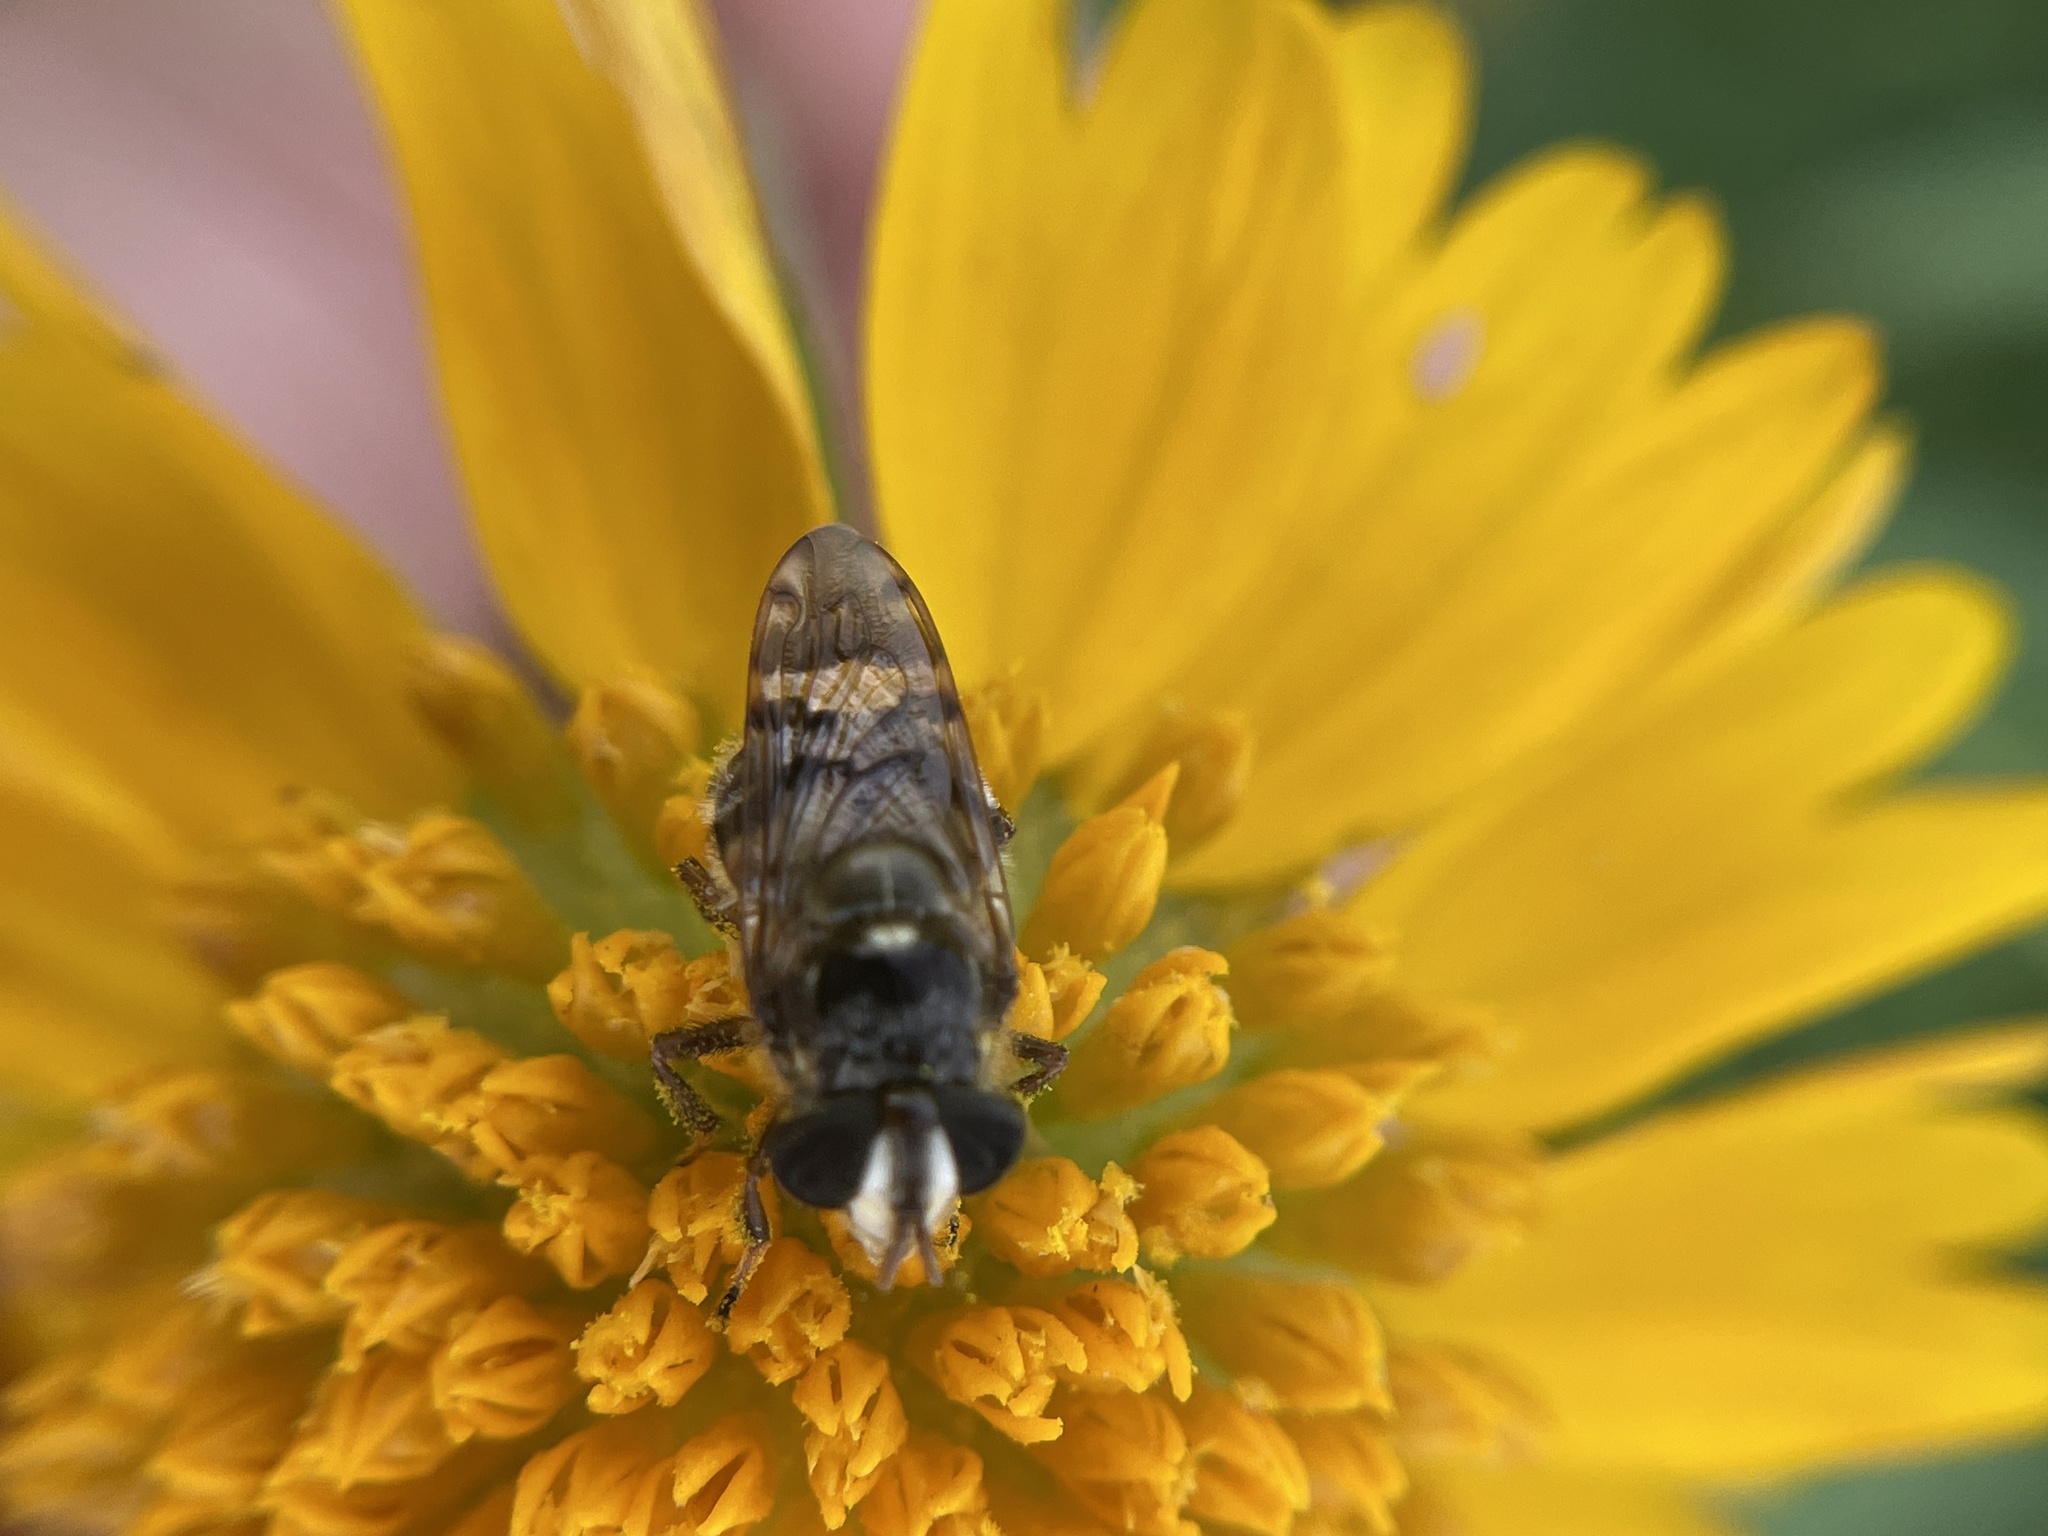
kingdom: Animalia
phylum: Arthropoda
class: Insecta
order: Diptera
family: Syrphidae
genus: Copestylum
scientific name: Copestylum tamaulipanum
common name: Syrphid fly
